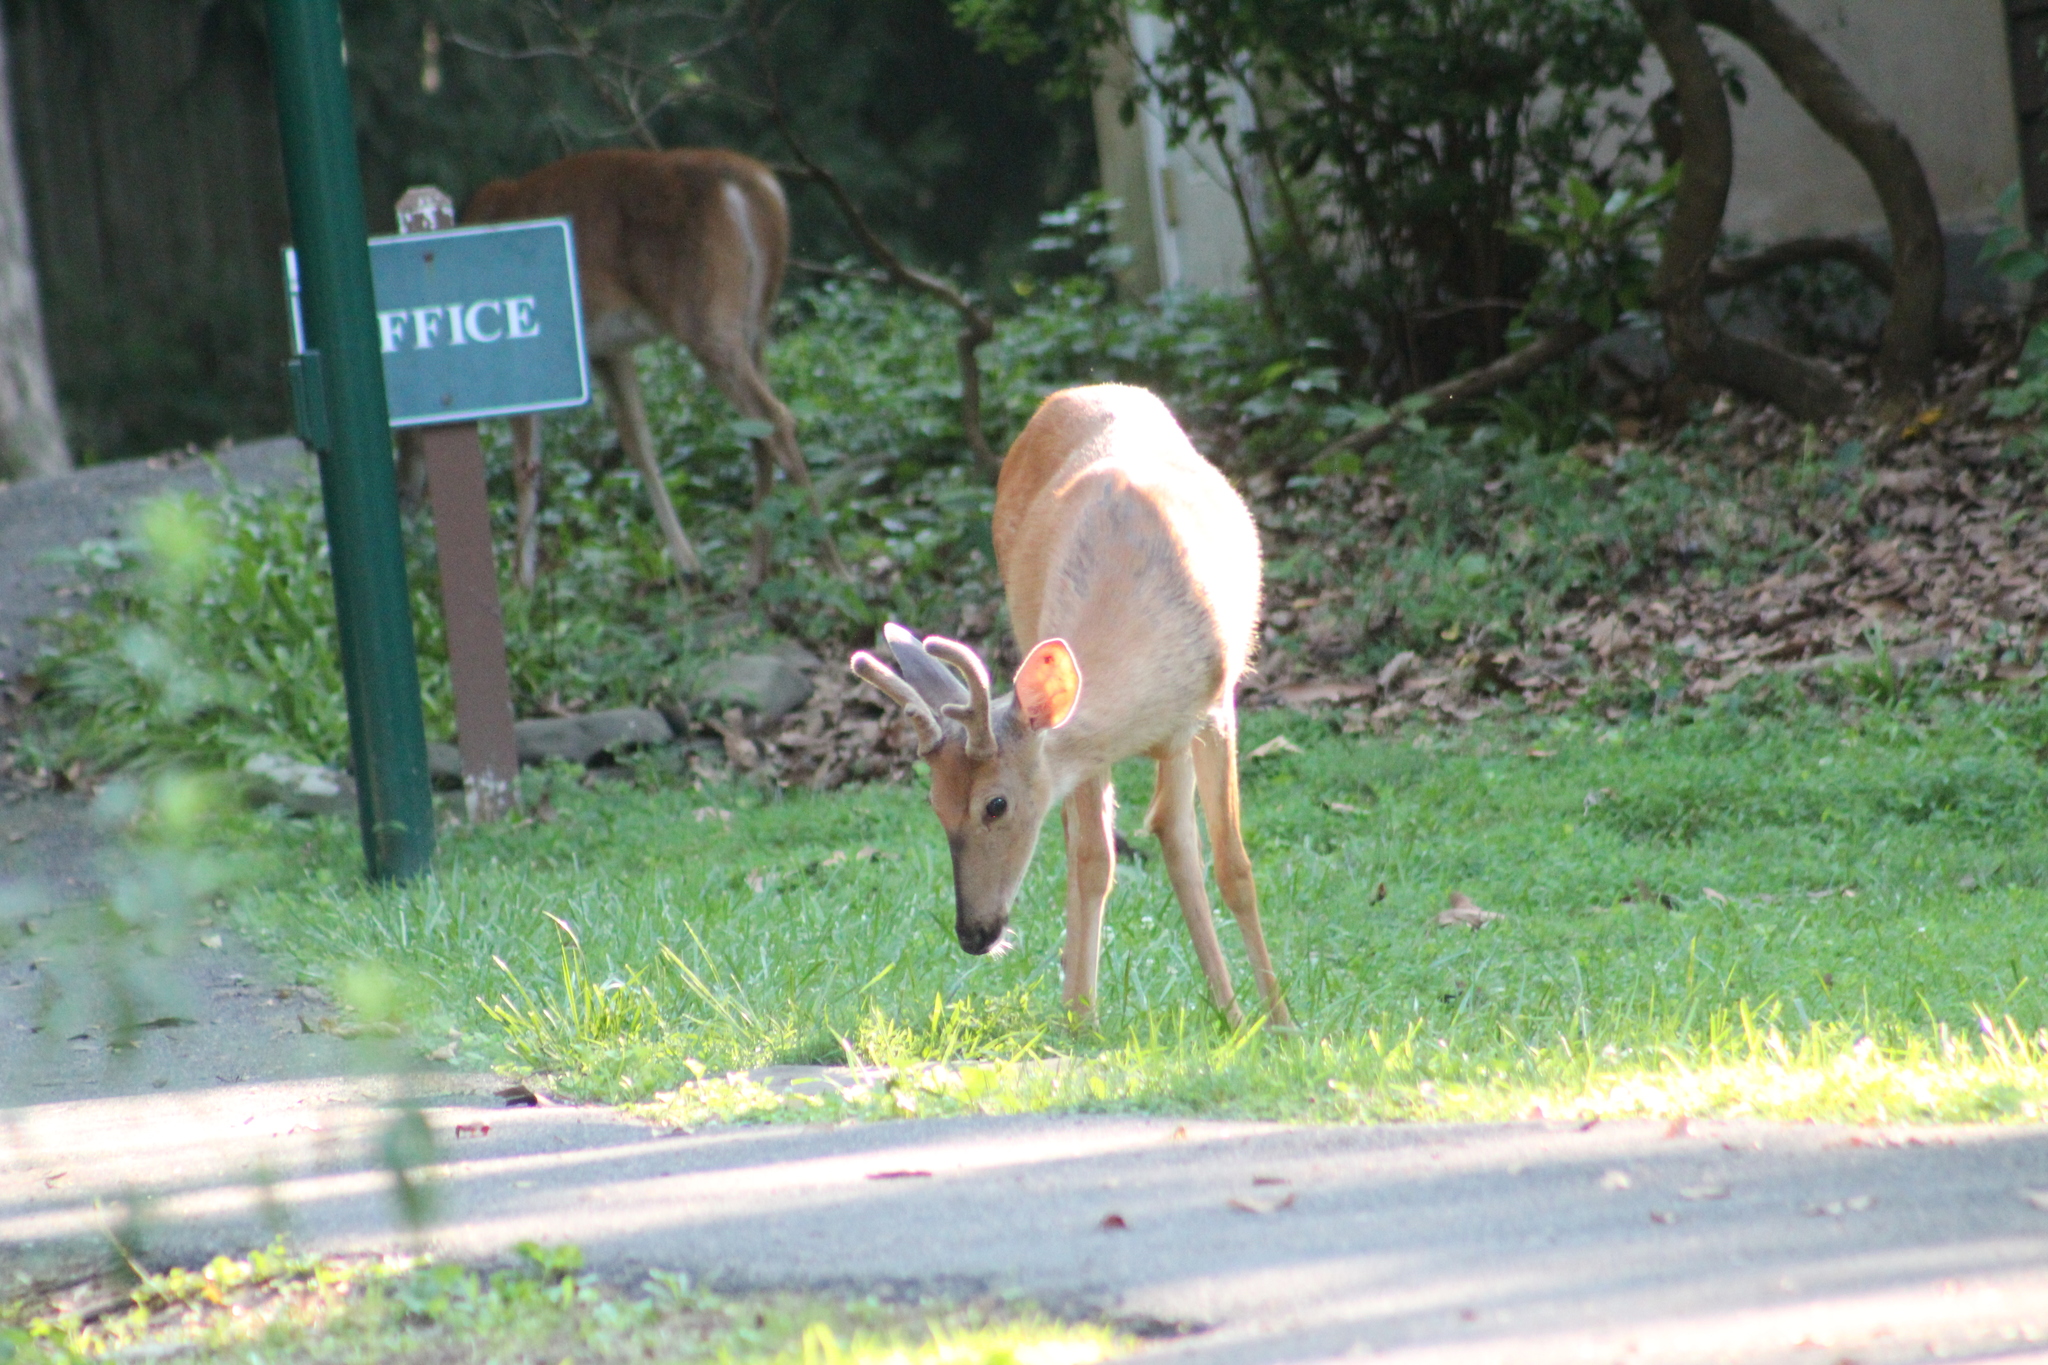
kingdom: Animalia
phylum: Chordata
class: Mammalia
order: Artiodactyla
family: Cervidae
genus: Odocoileus
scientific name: Odocoileus virginianus
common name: White-tailed deer
